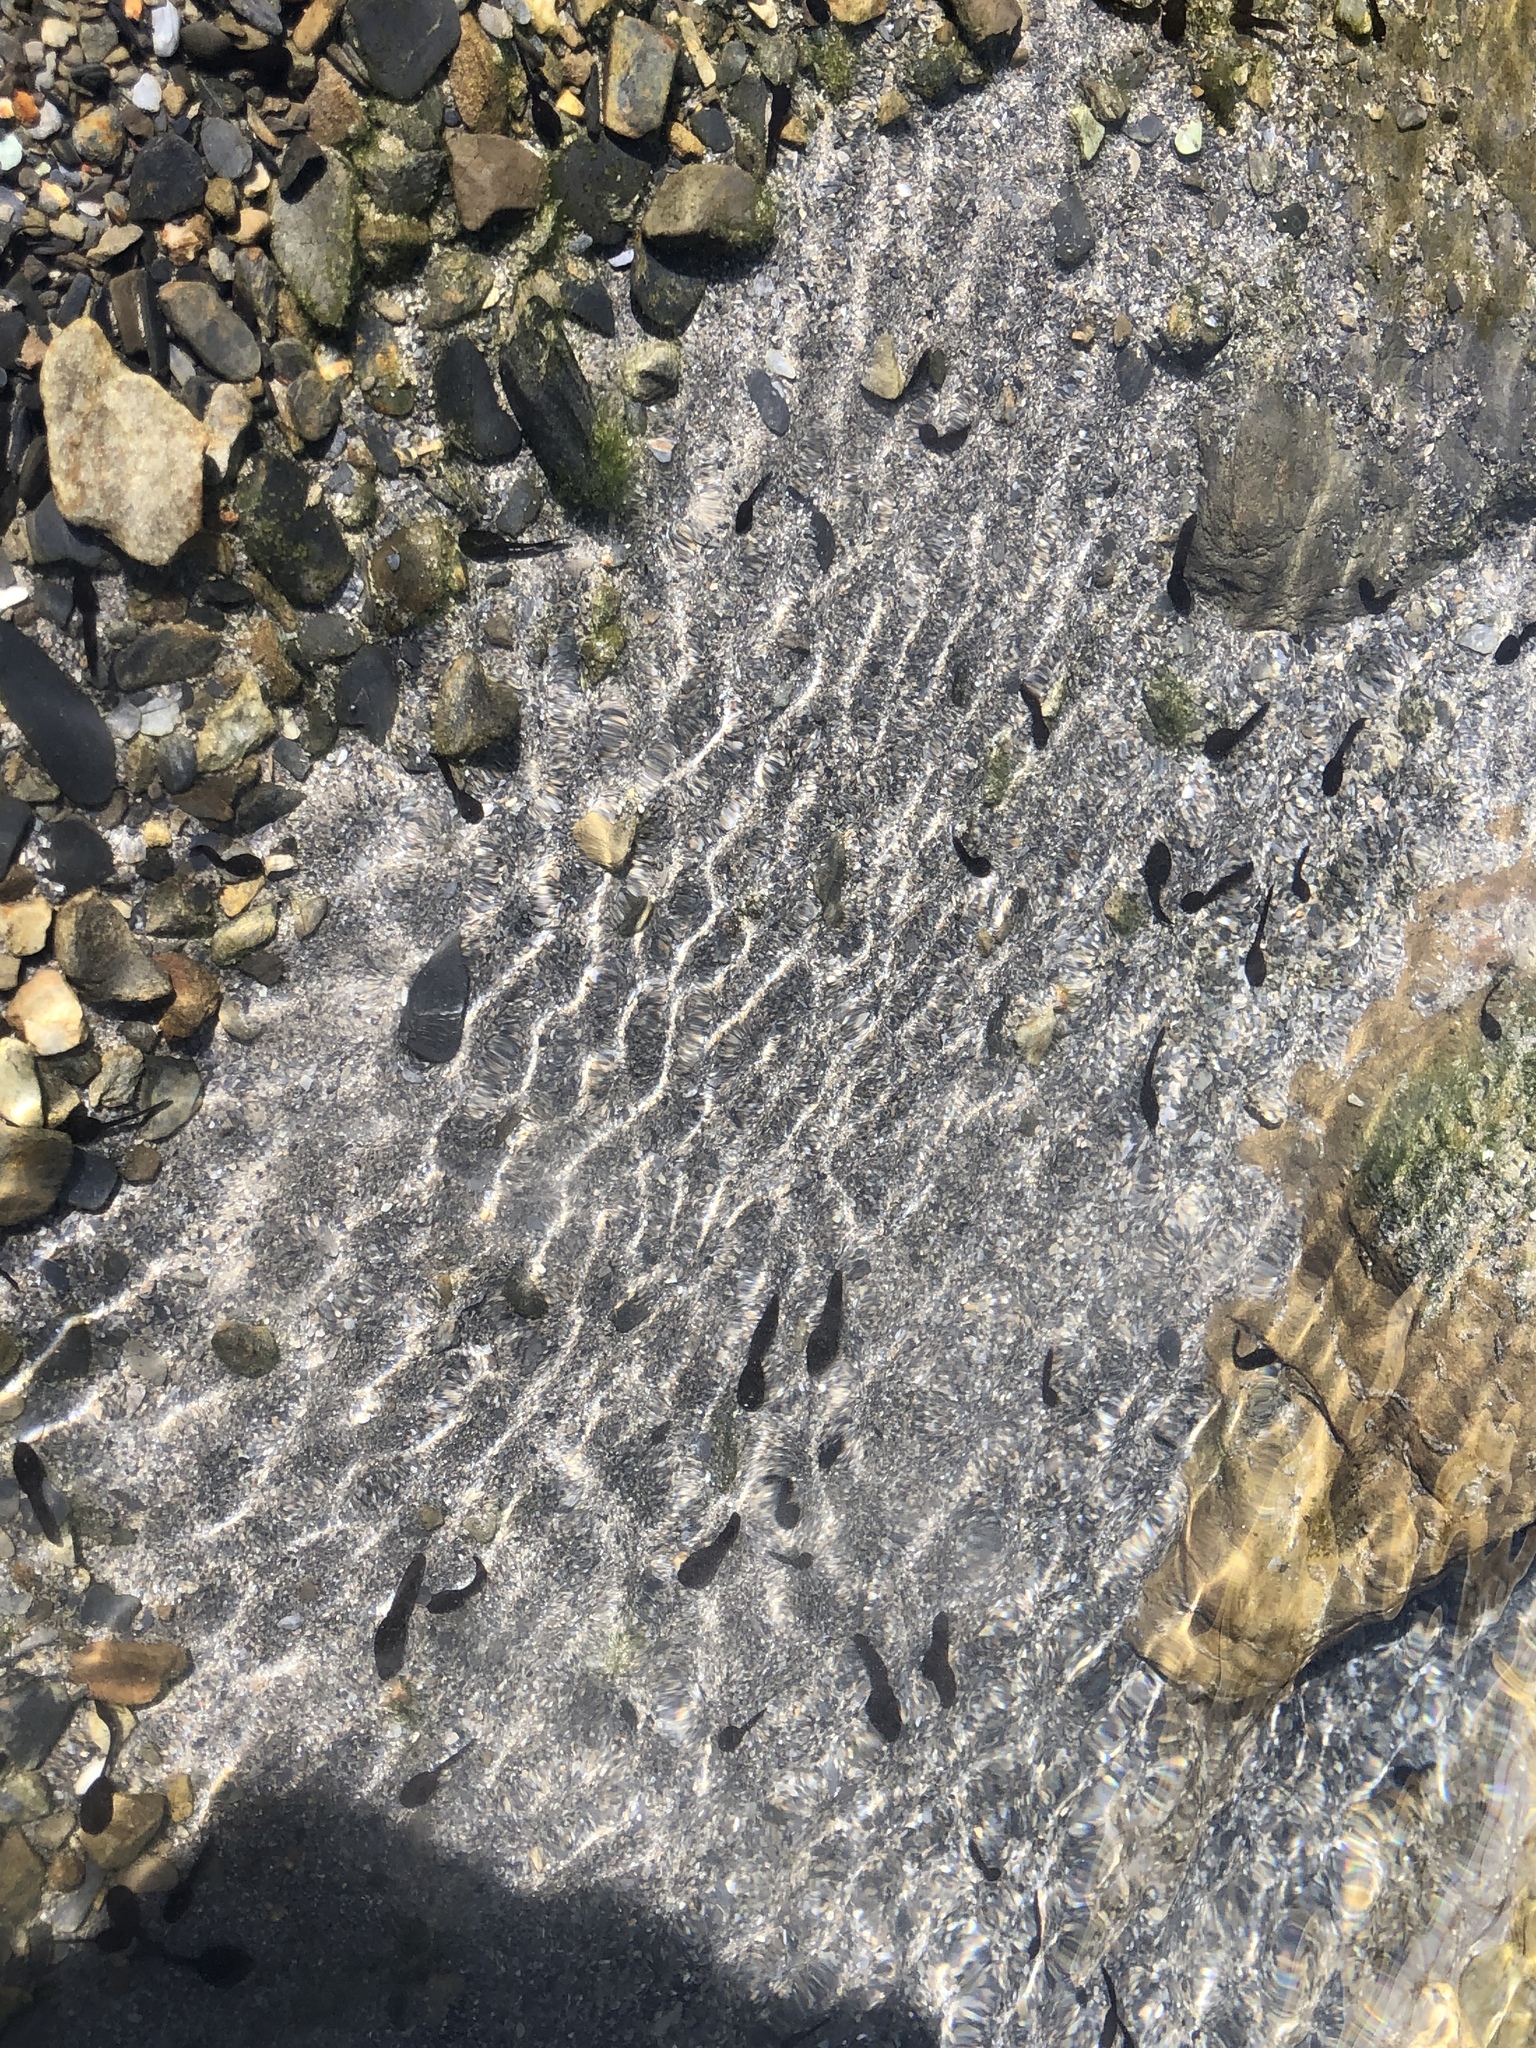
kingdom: Animalia
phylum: Chordata
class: Amphibia
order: Anura
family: Bufonidae
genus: Bufo
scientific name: Bufo bankorensis
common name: Bankor toad
